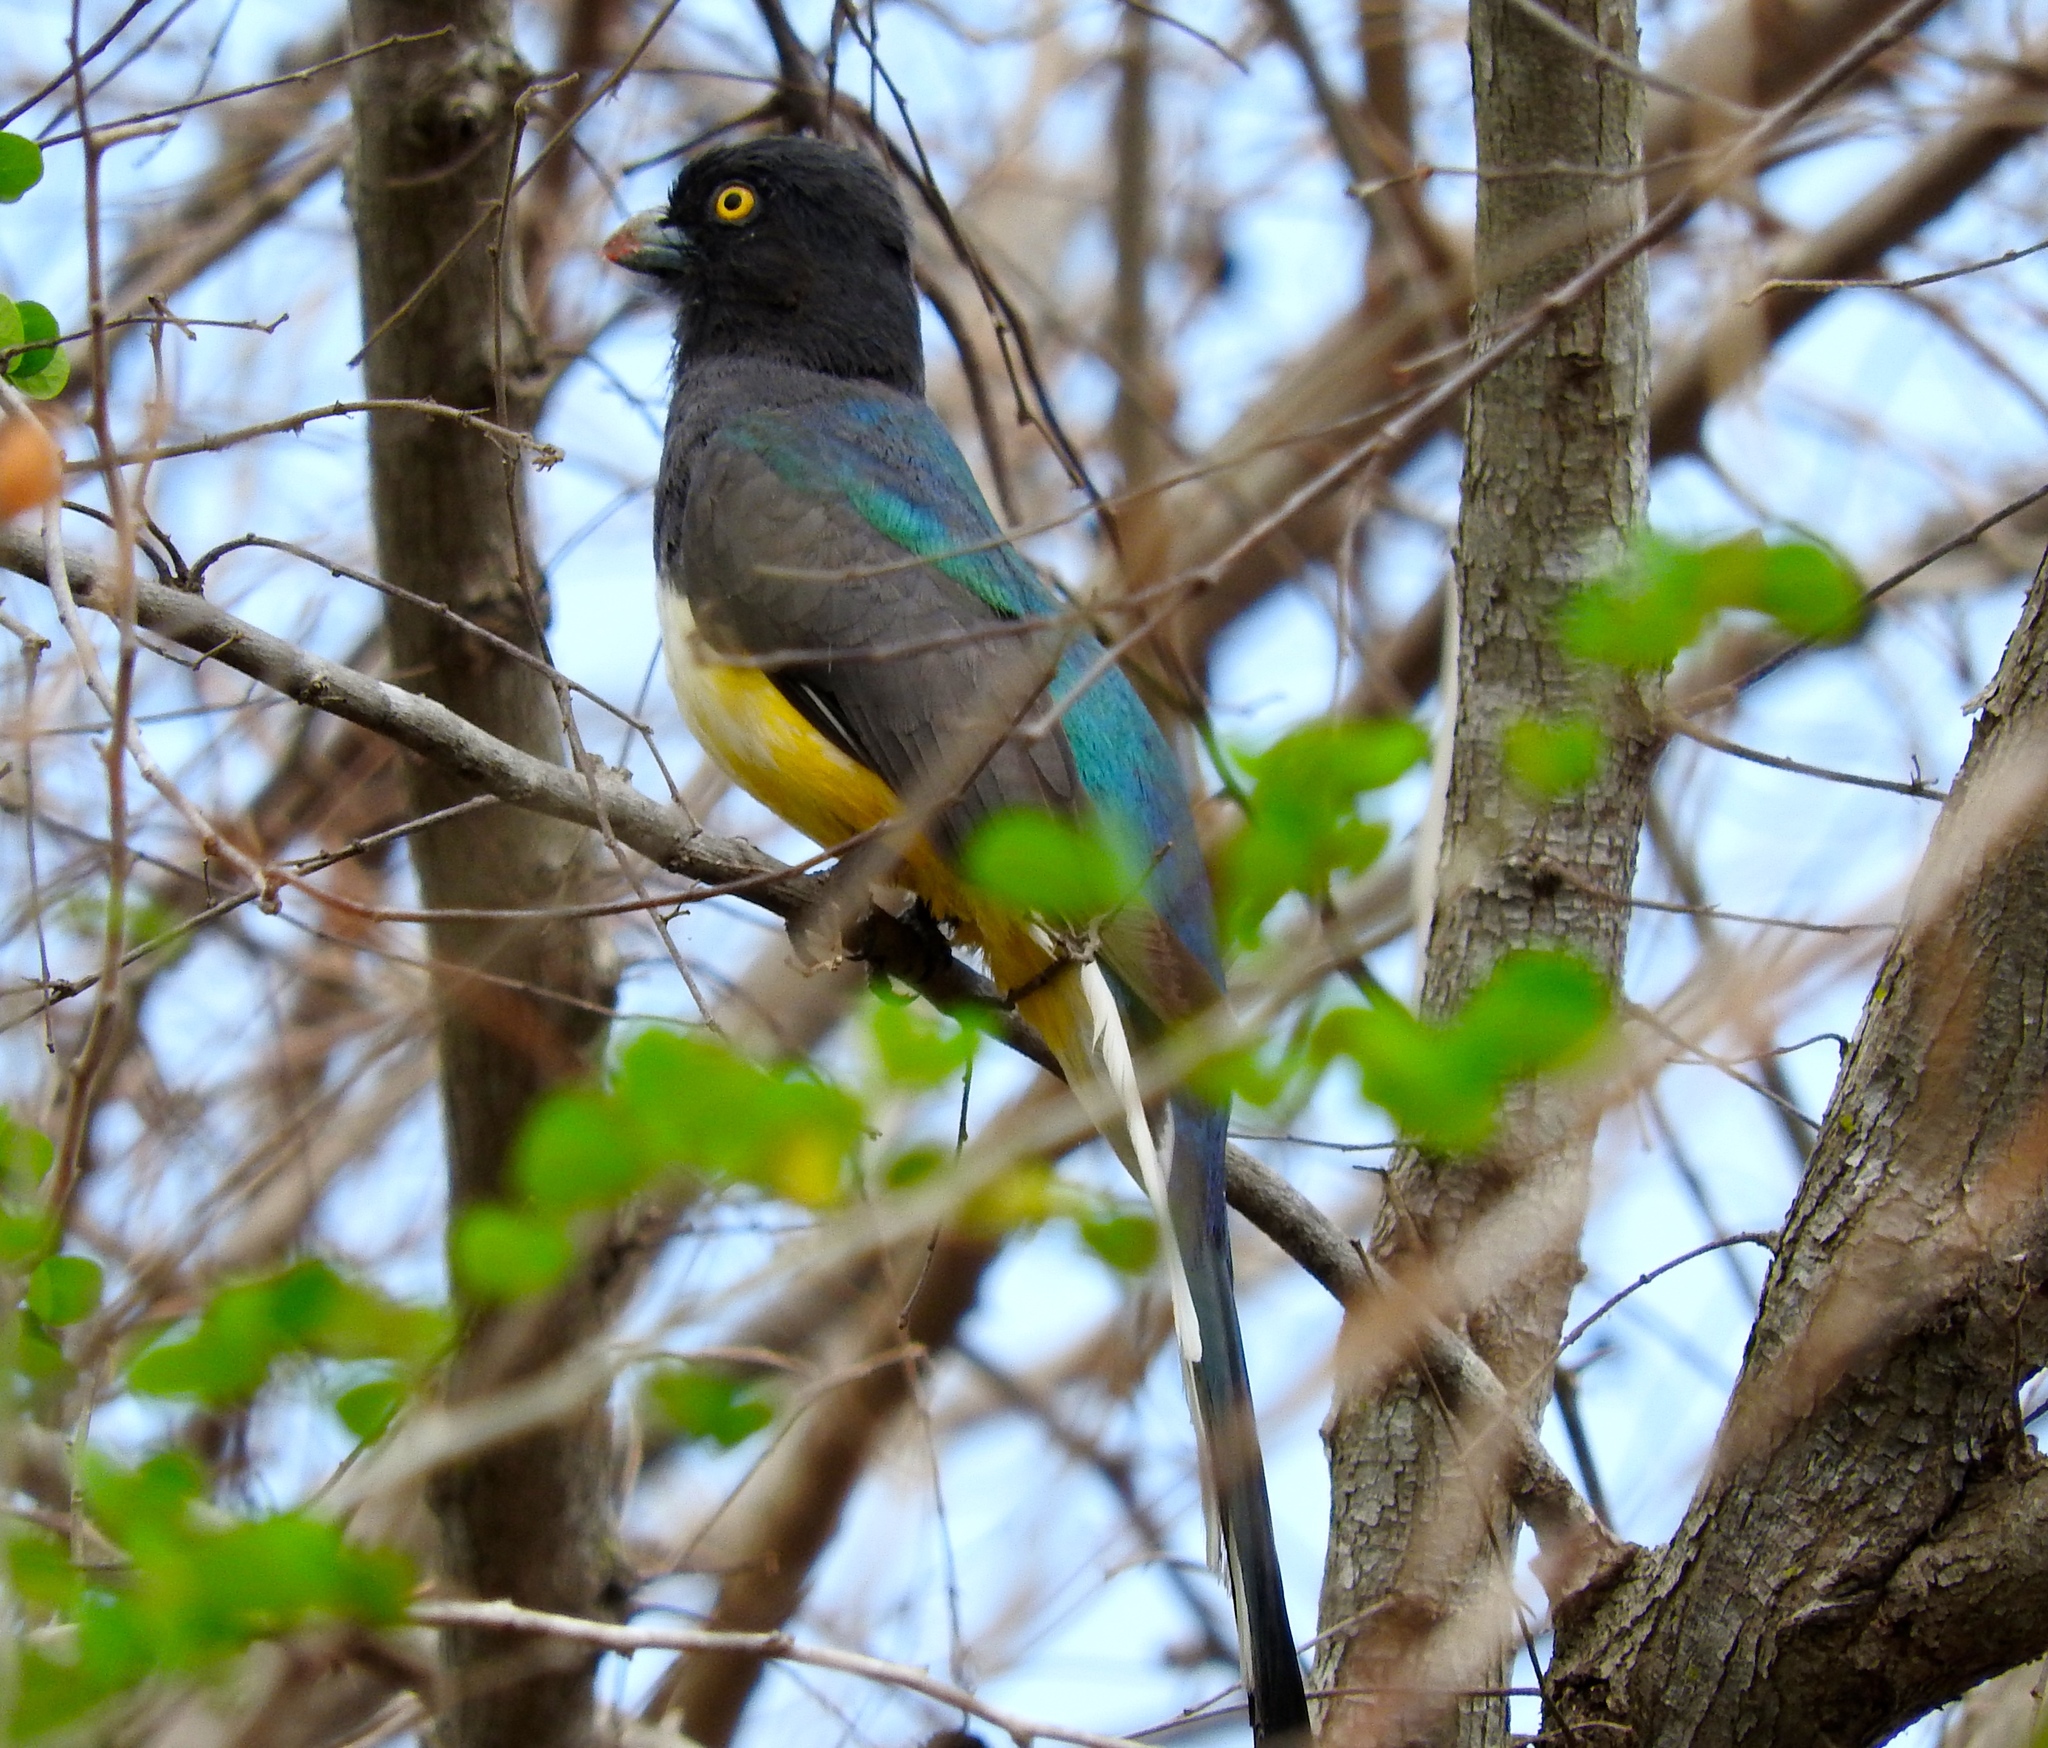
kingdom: Animalia
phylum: Chordata
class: Aves
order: Trogoniformes
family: Trogonidae
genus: Trogon
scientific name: Trogon citreolus
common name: Citreoline trogon
